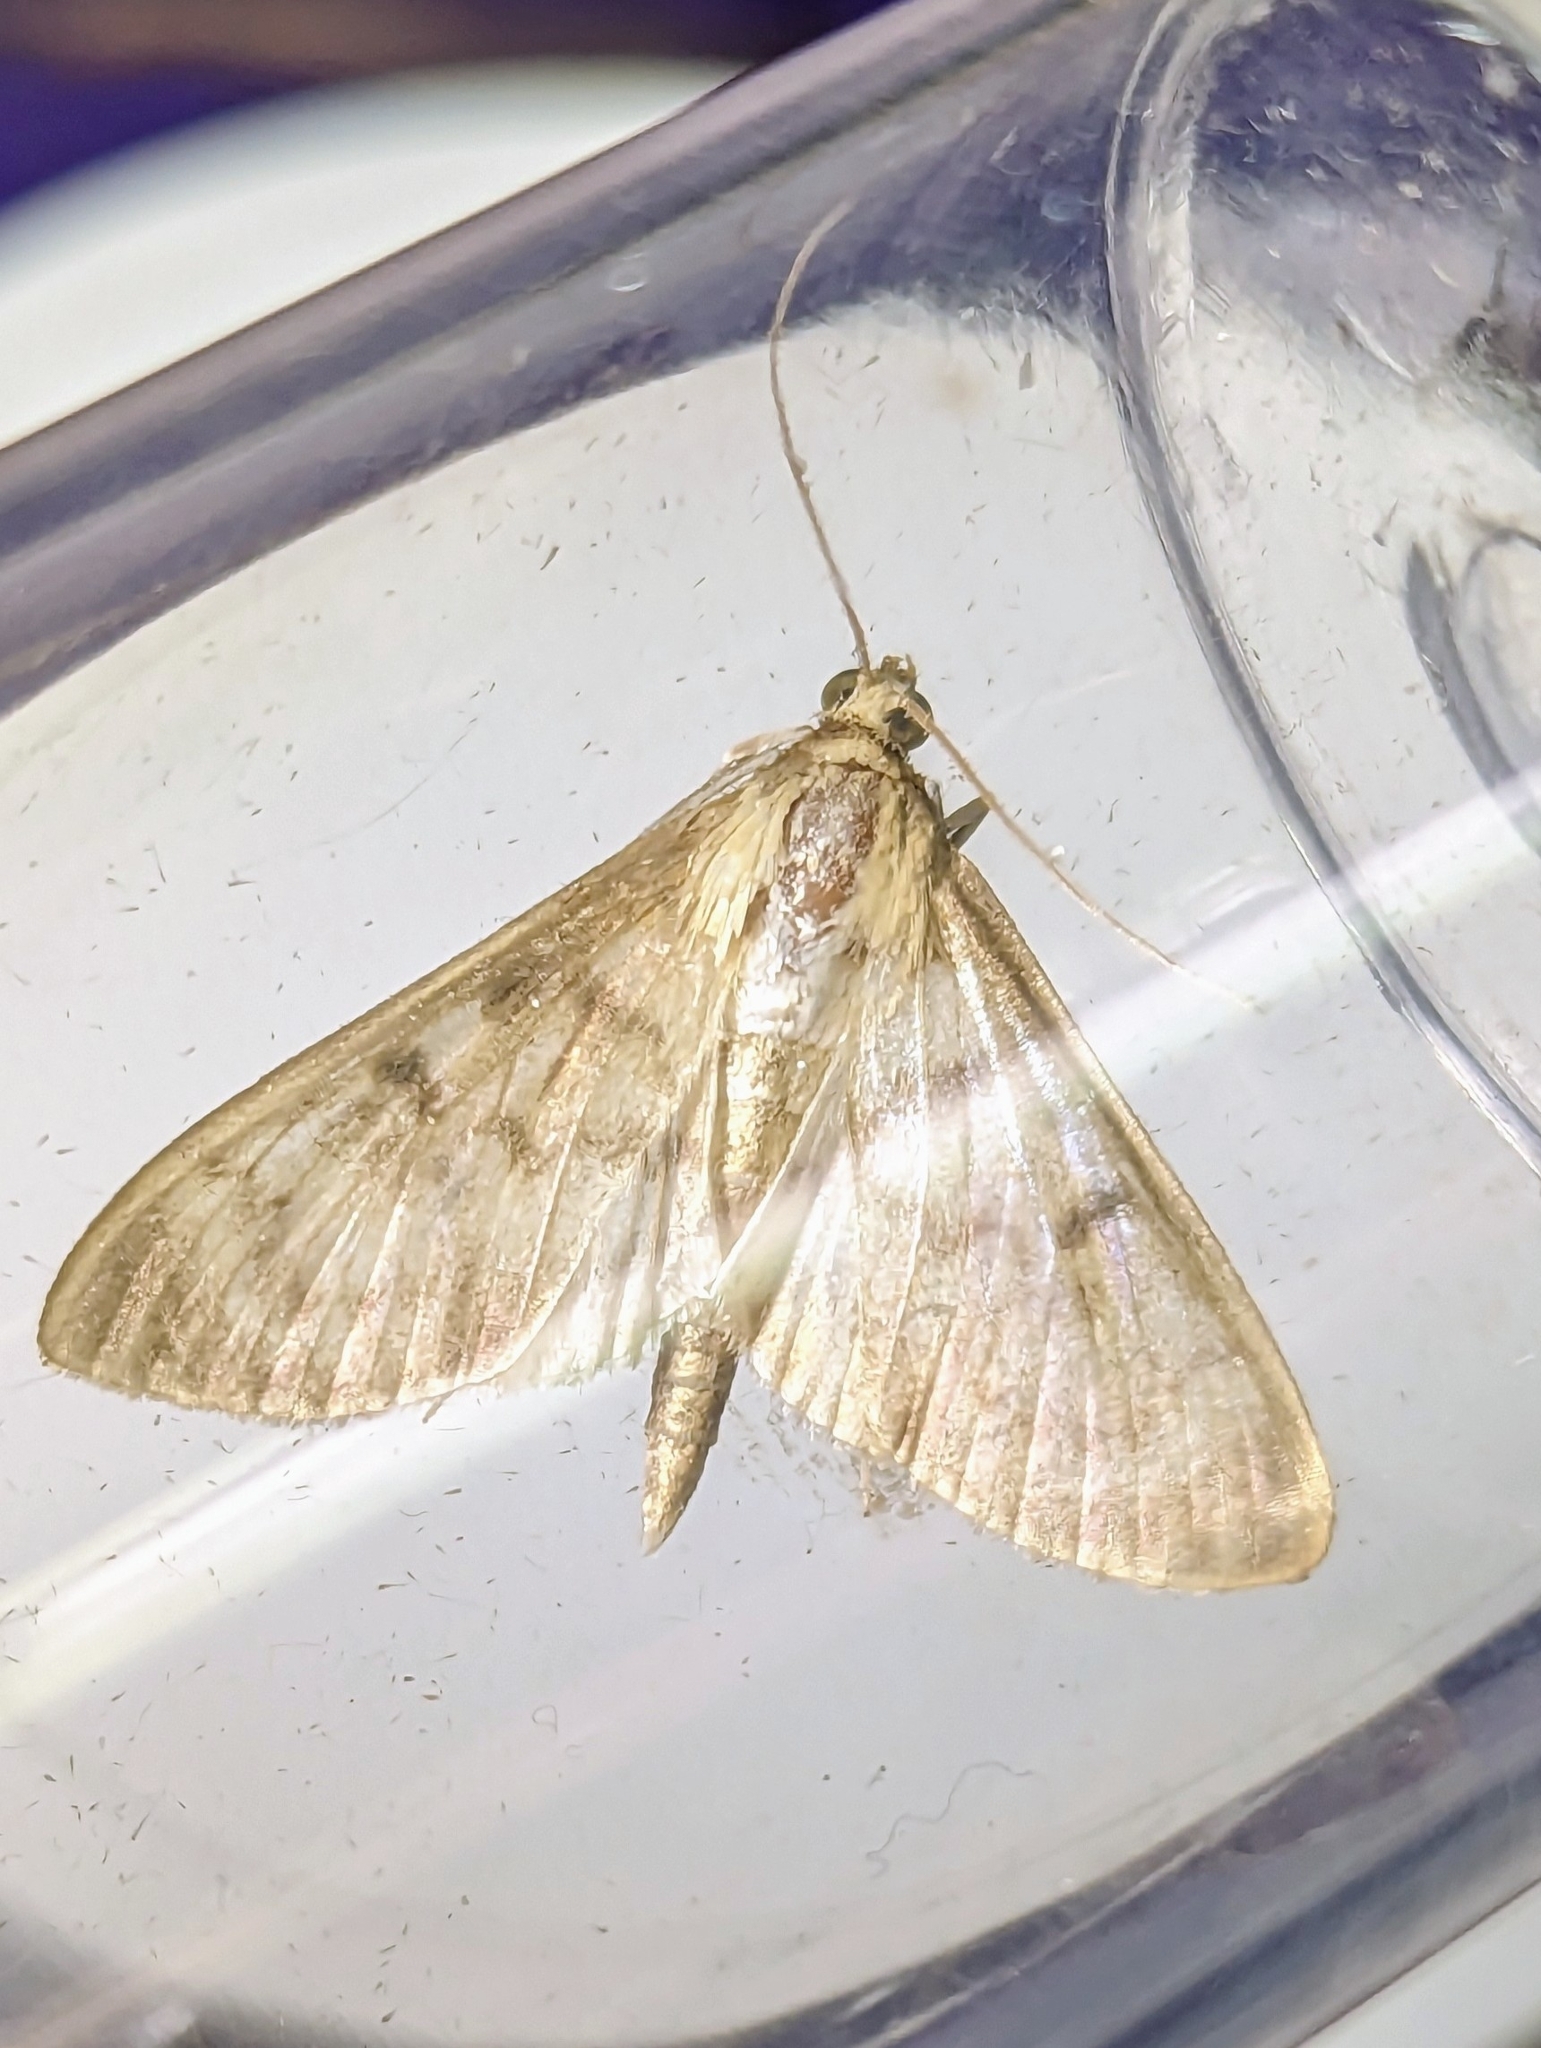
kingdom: Animalia
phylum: Arthropoda
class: Insecta
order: Lepidoptera
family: Crambidae
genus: Patania
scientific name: Patania ruralis
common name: Mother of pearl
